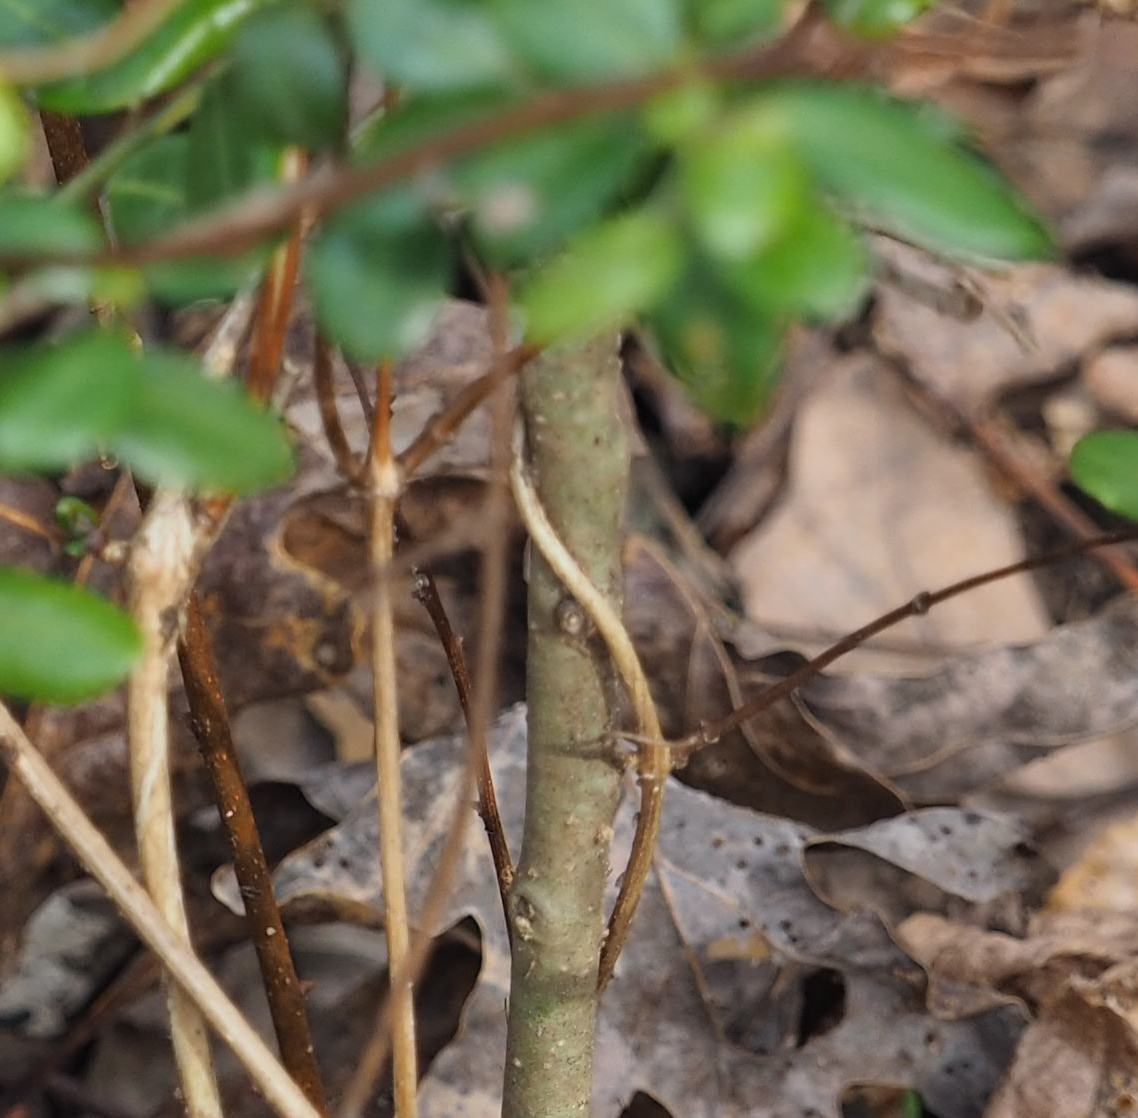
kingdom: Plantae
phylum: Tracheophyta
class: Magnoliopsida
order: Aquifoliales
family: Aquifoliaceae
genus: Ilex
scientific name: Ilex crenata
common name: Japanese holly
